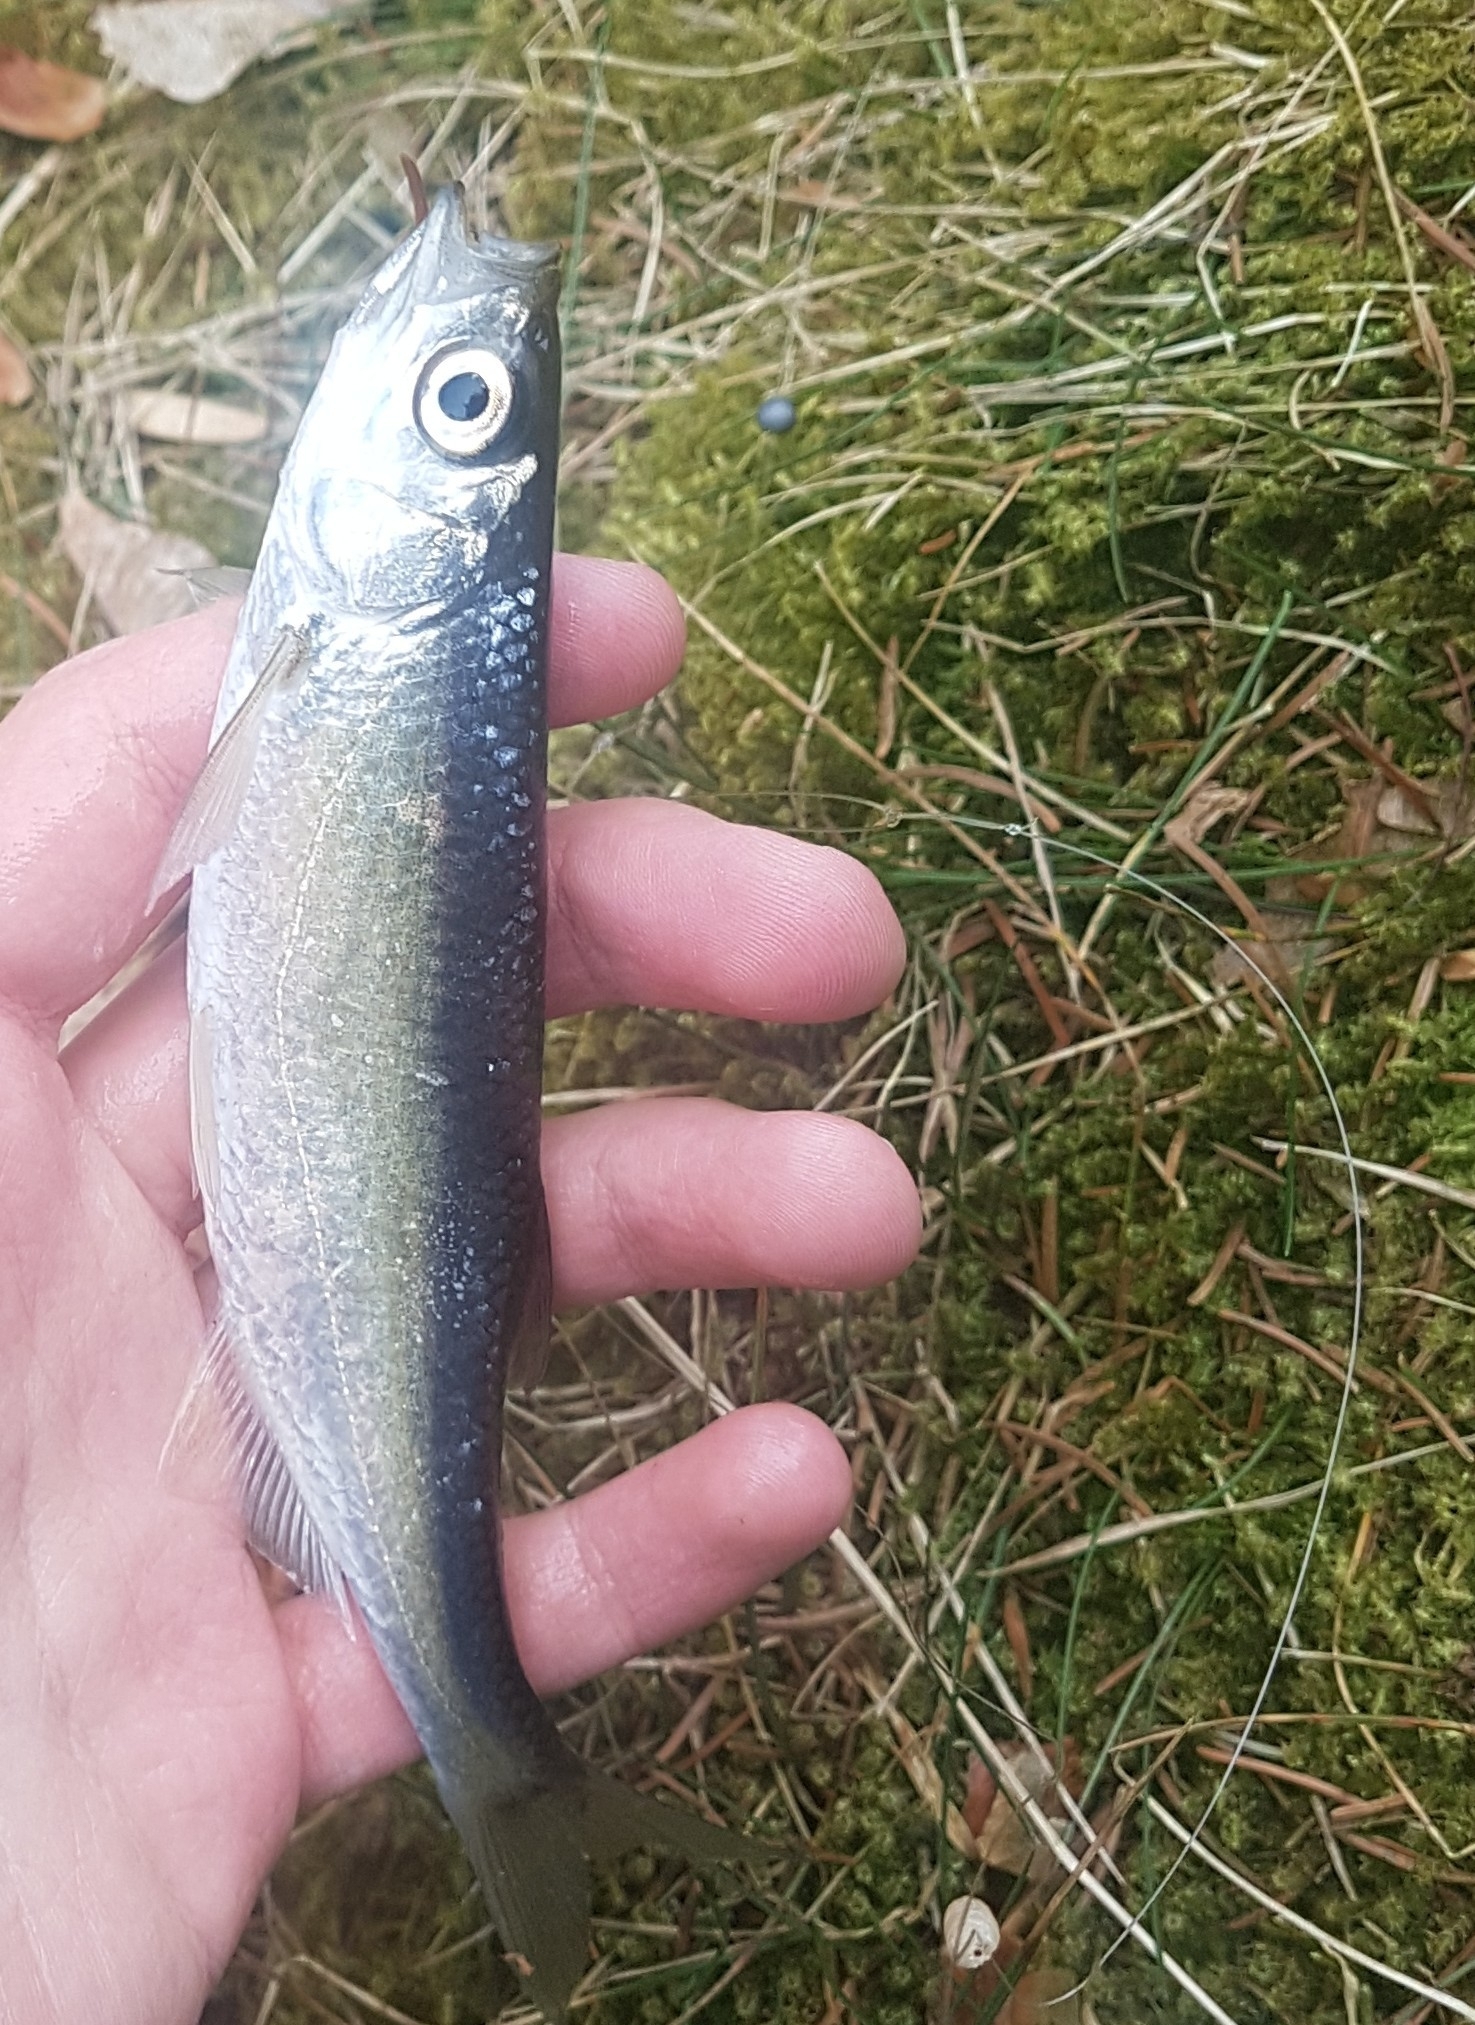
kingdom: Animalia
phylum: Chordata
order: Cypriniformes
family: Cyprinidae
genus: Alburnus
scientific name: Alburnus alburnus
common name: Bleak
